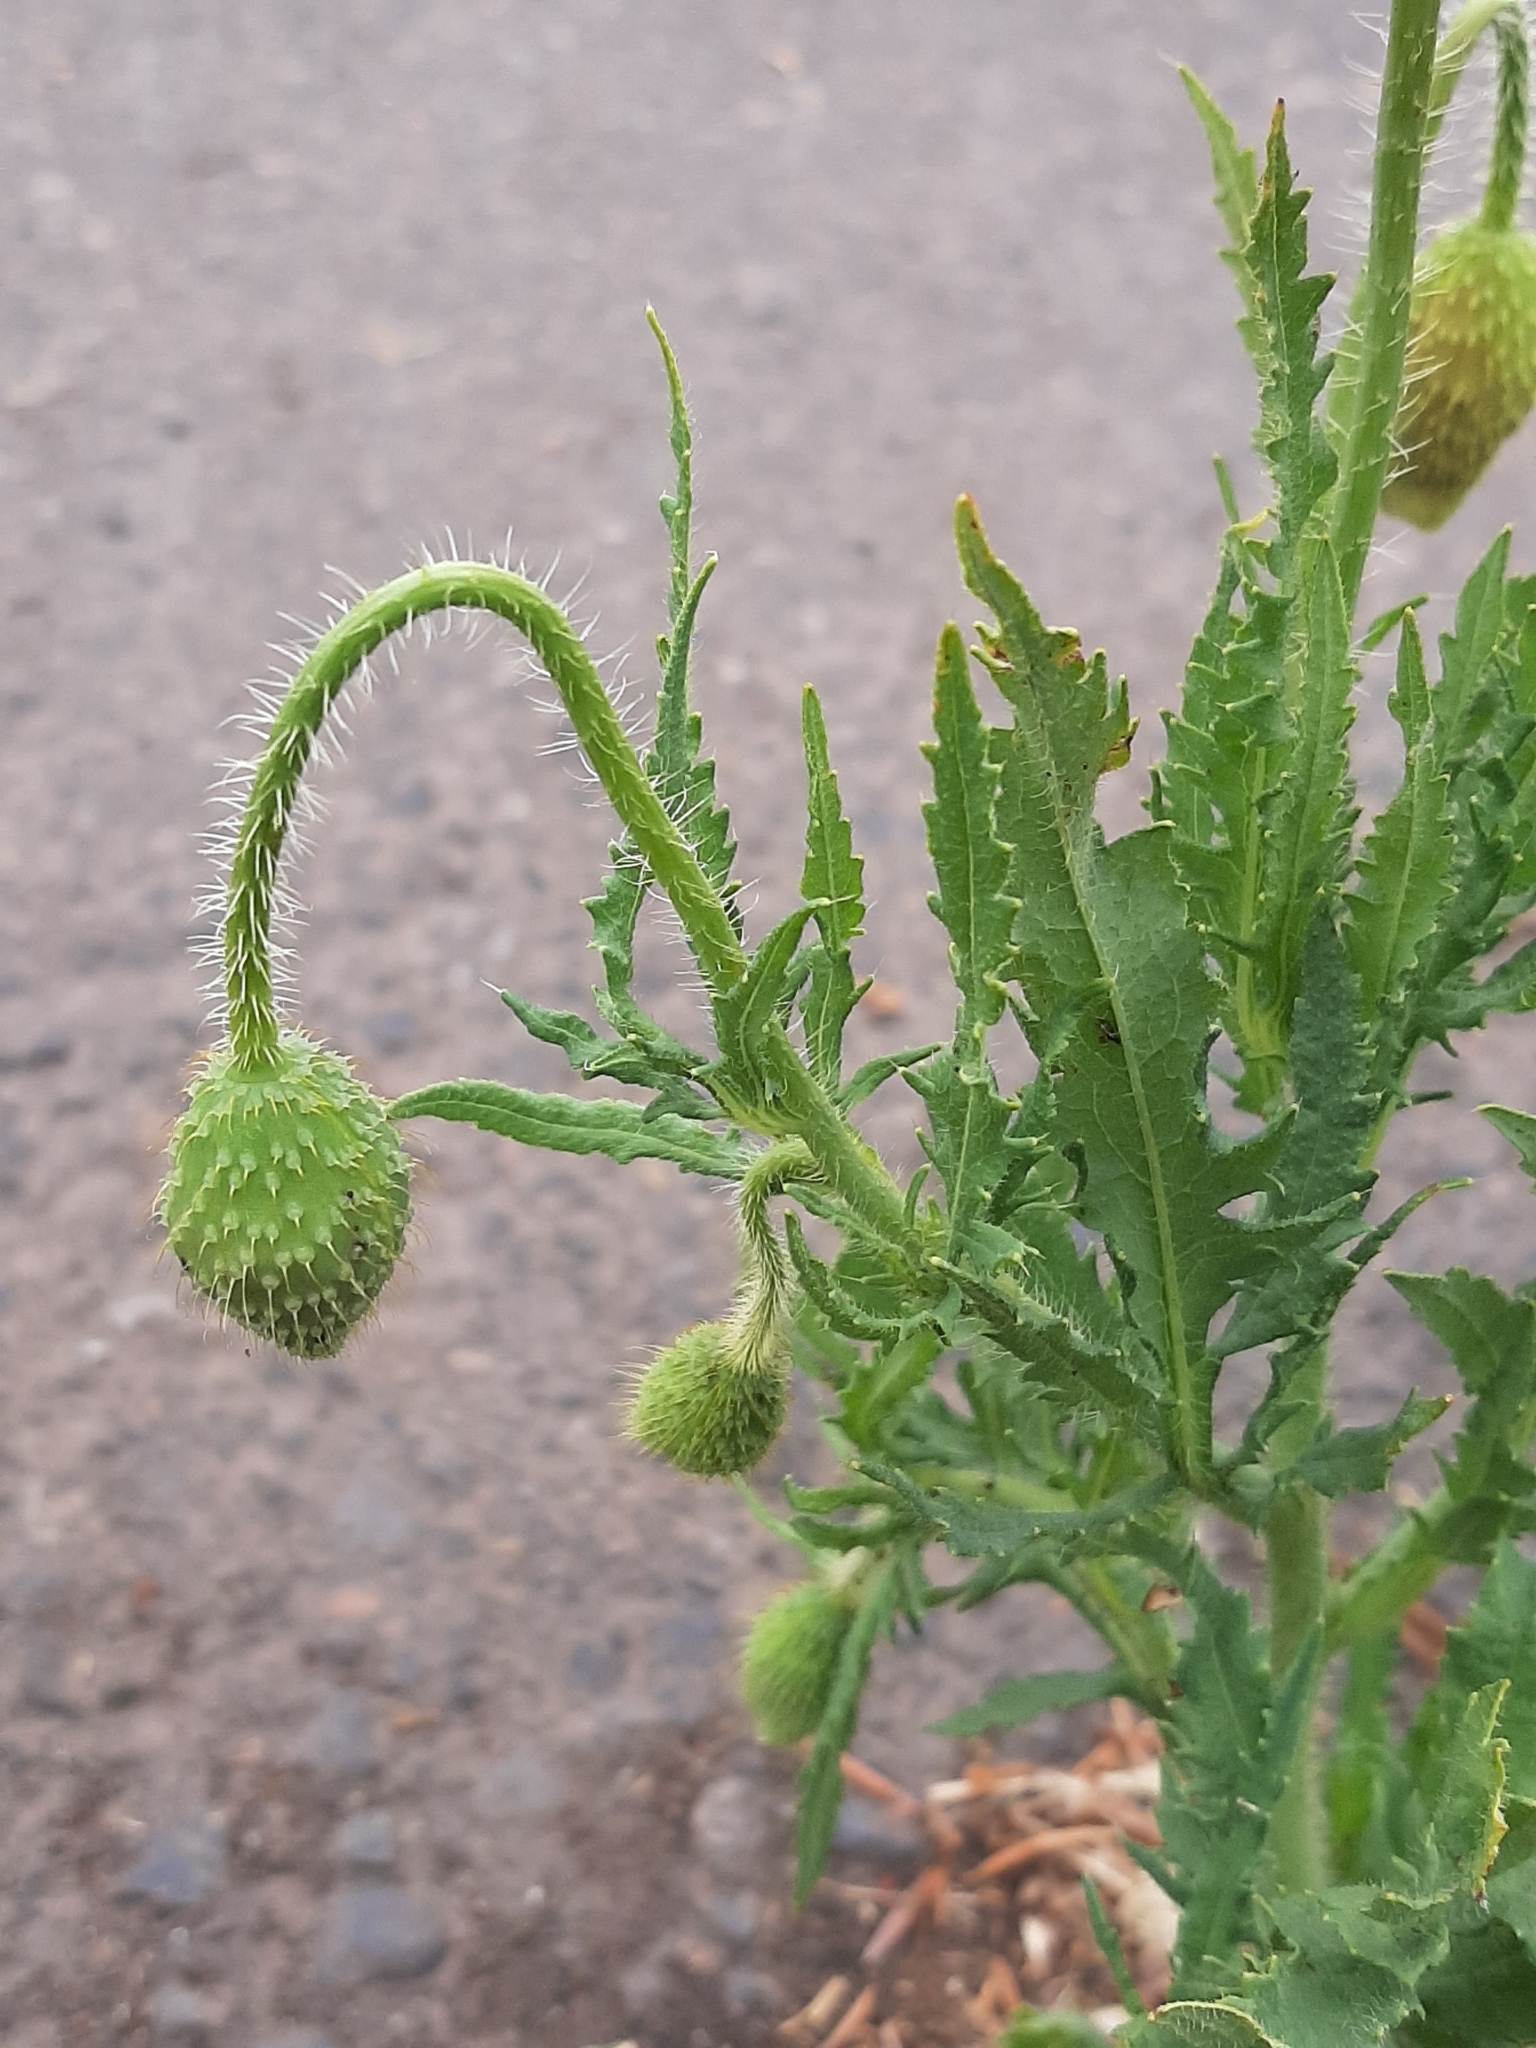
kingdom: Plantae
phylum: Tracheophyta
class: Magnoliopsida
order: Ranunculales
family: Papaveraceae
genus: Papaver
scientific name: Papaver orientale
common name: Oriental poppy
